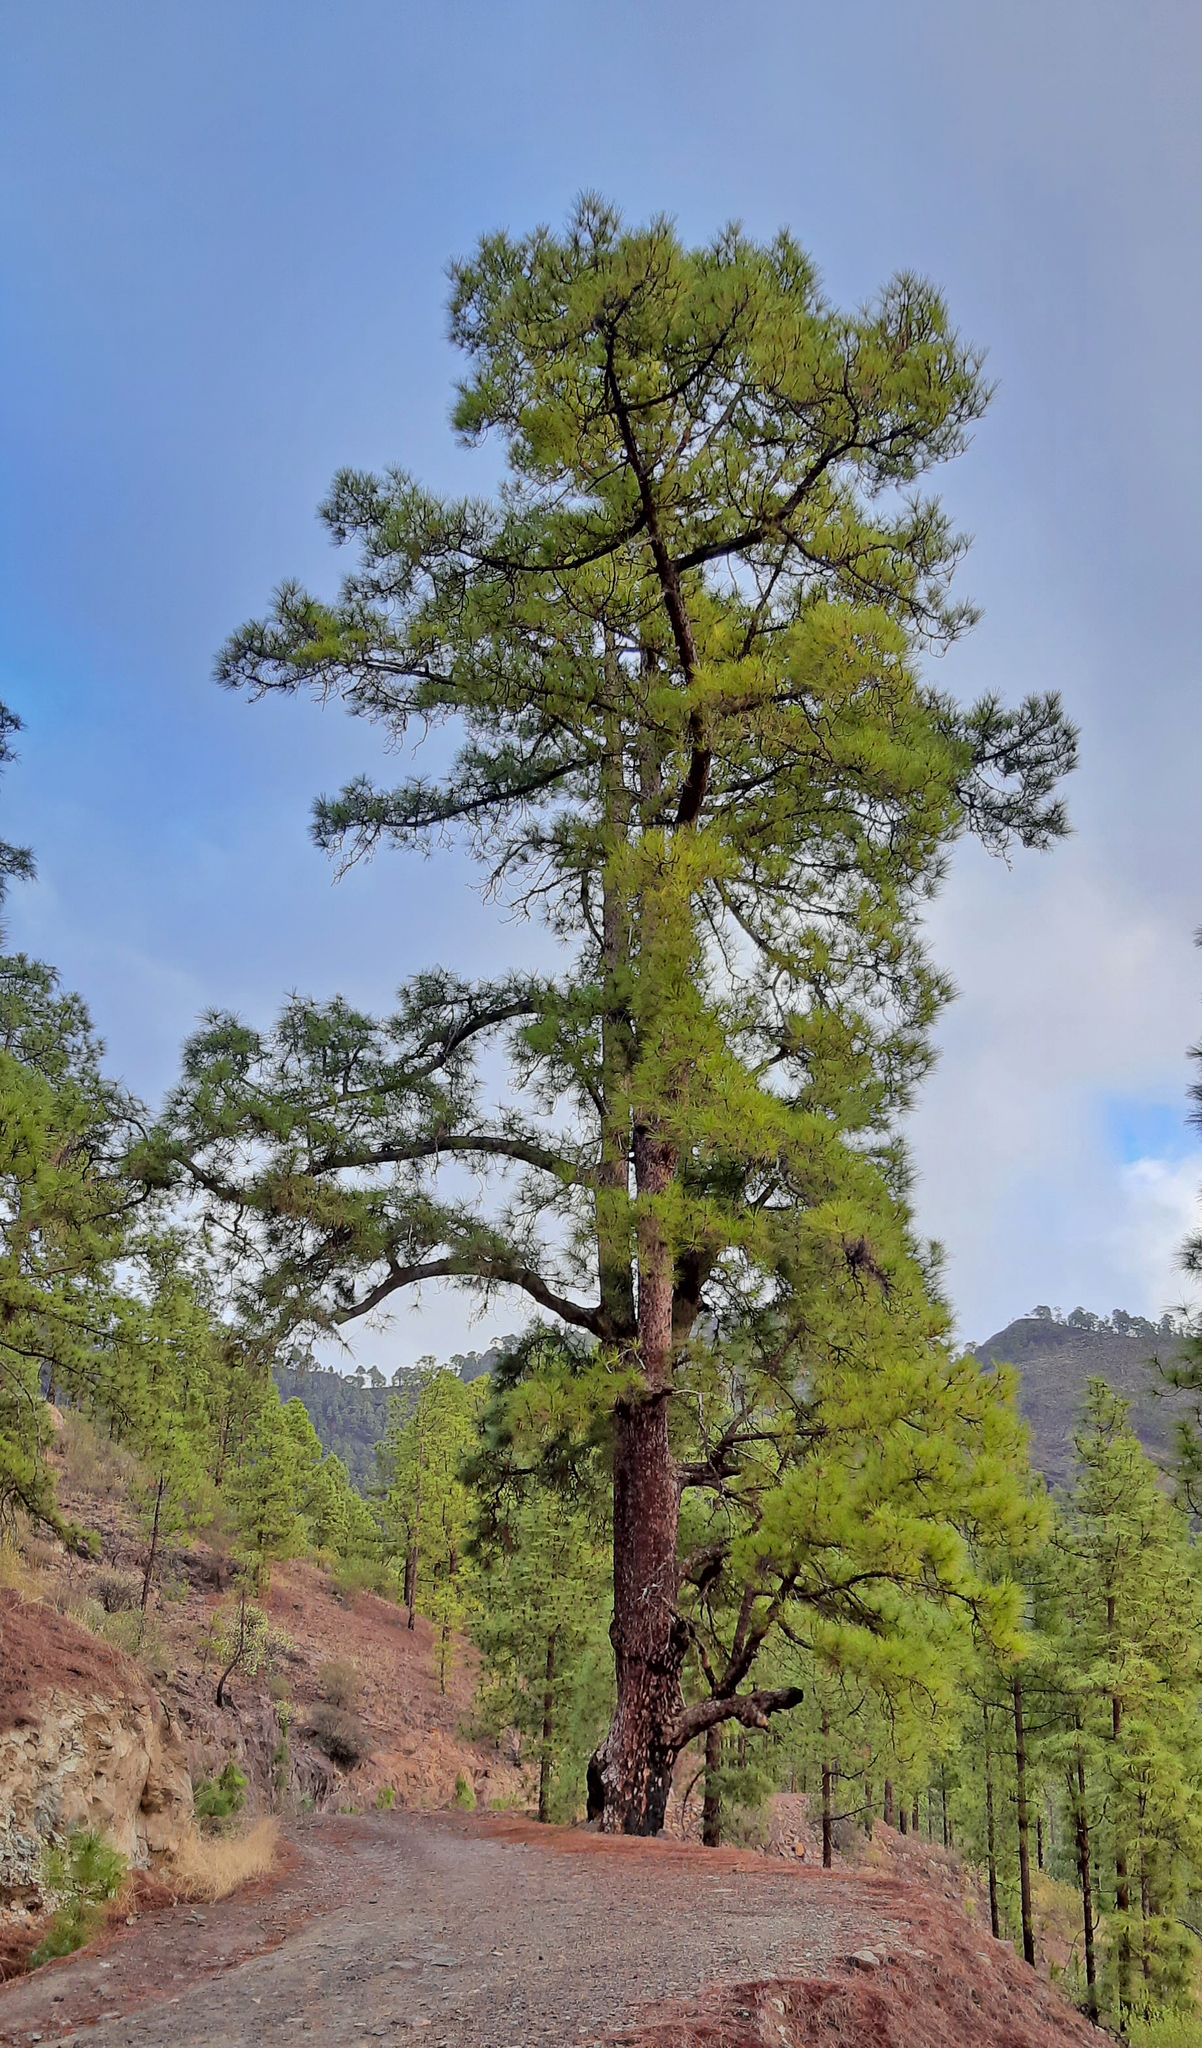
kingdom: Plantae
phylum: Tracheophyta
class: Pinopsida
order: Pinales
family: Pinaceae
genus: Pinus
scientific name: Pinus canariensis
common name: Canary islands pine
